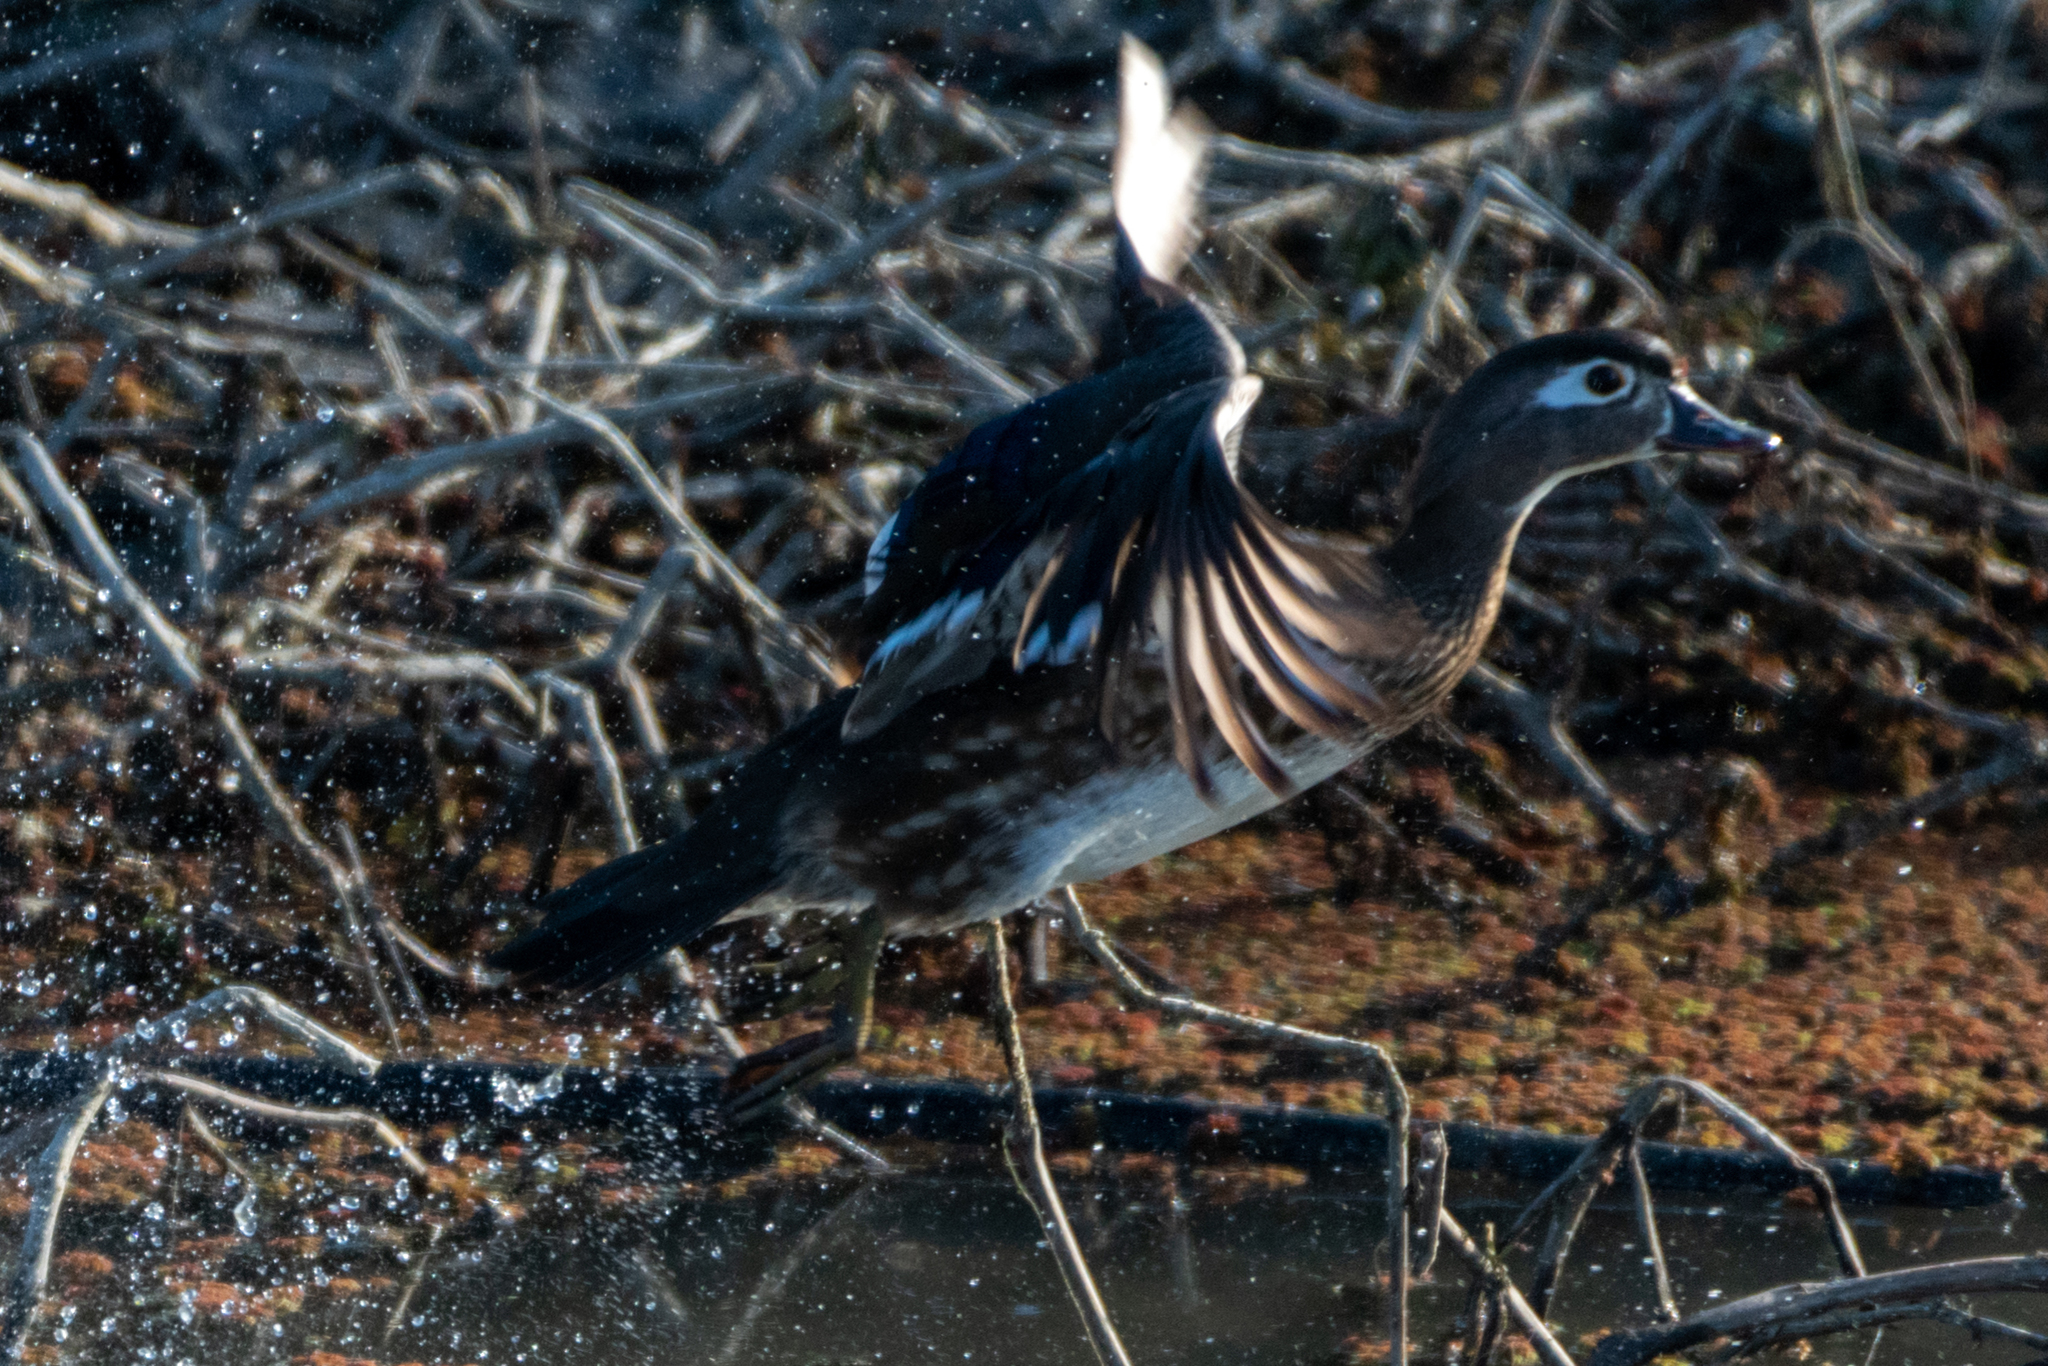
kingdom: Animalia
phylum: Chordata
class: Aves
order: Anseriformes
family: Anatidae
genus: Aix
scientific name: Aix sponsa
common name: Wood duck
